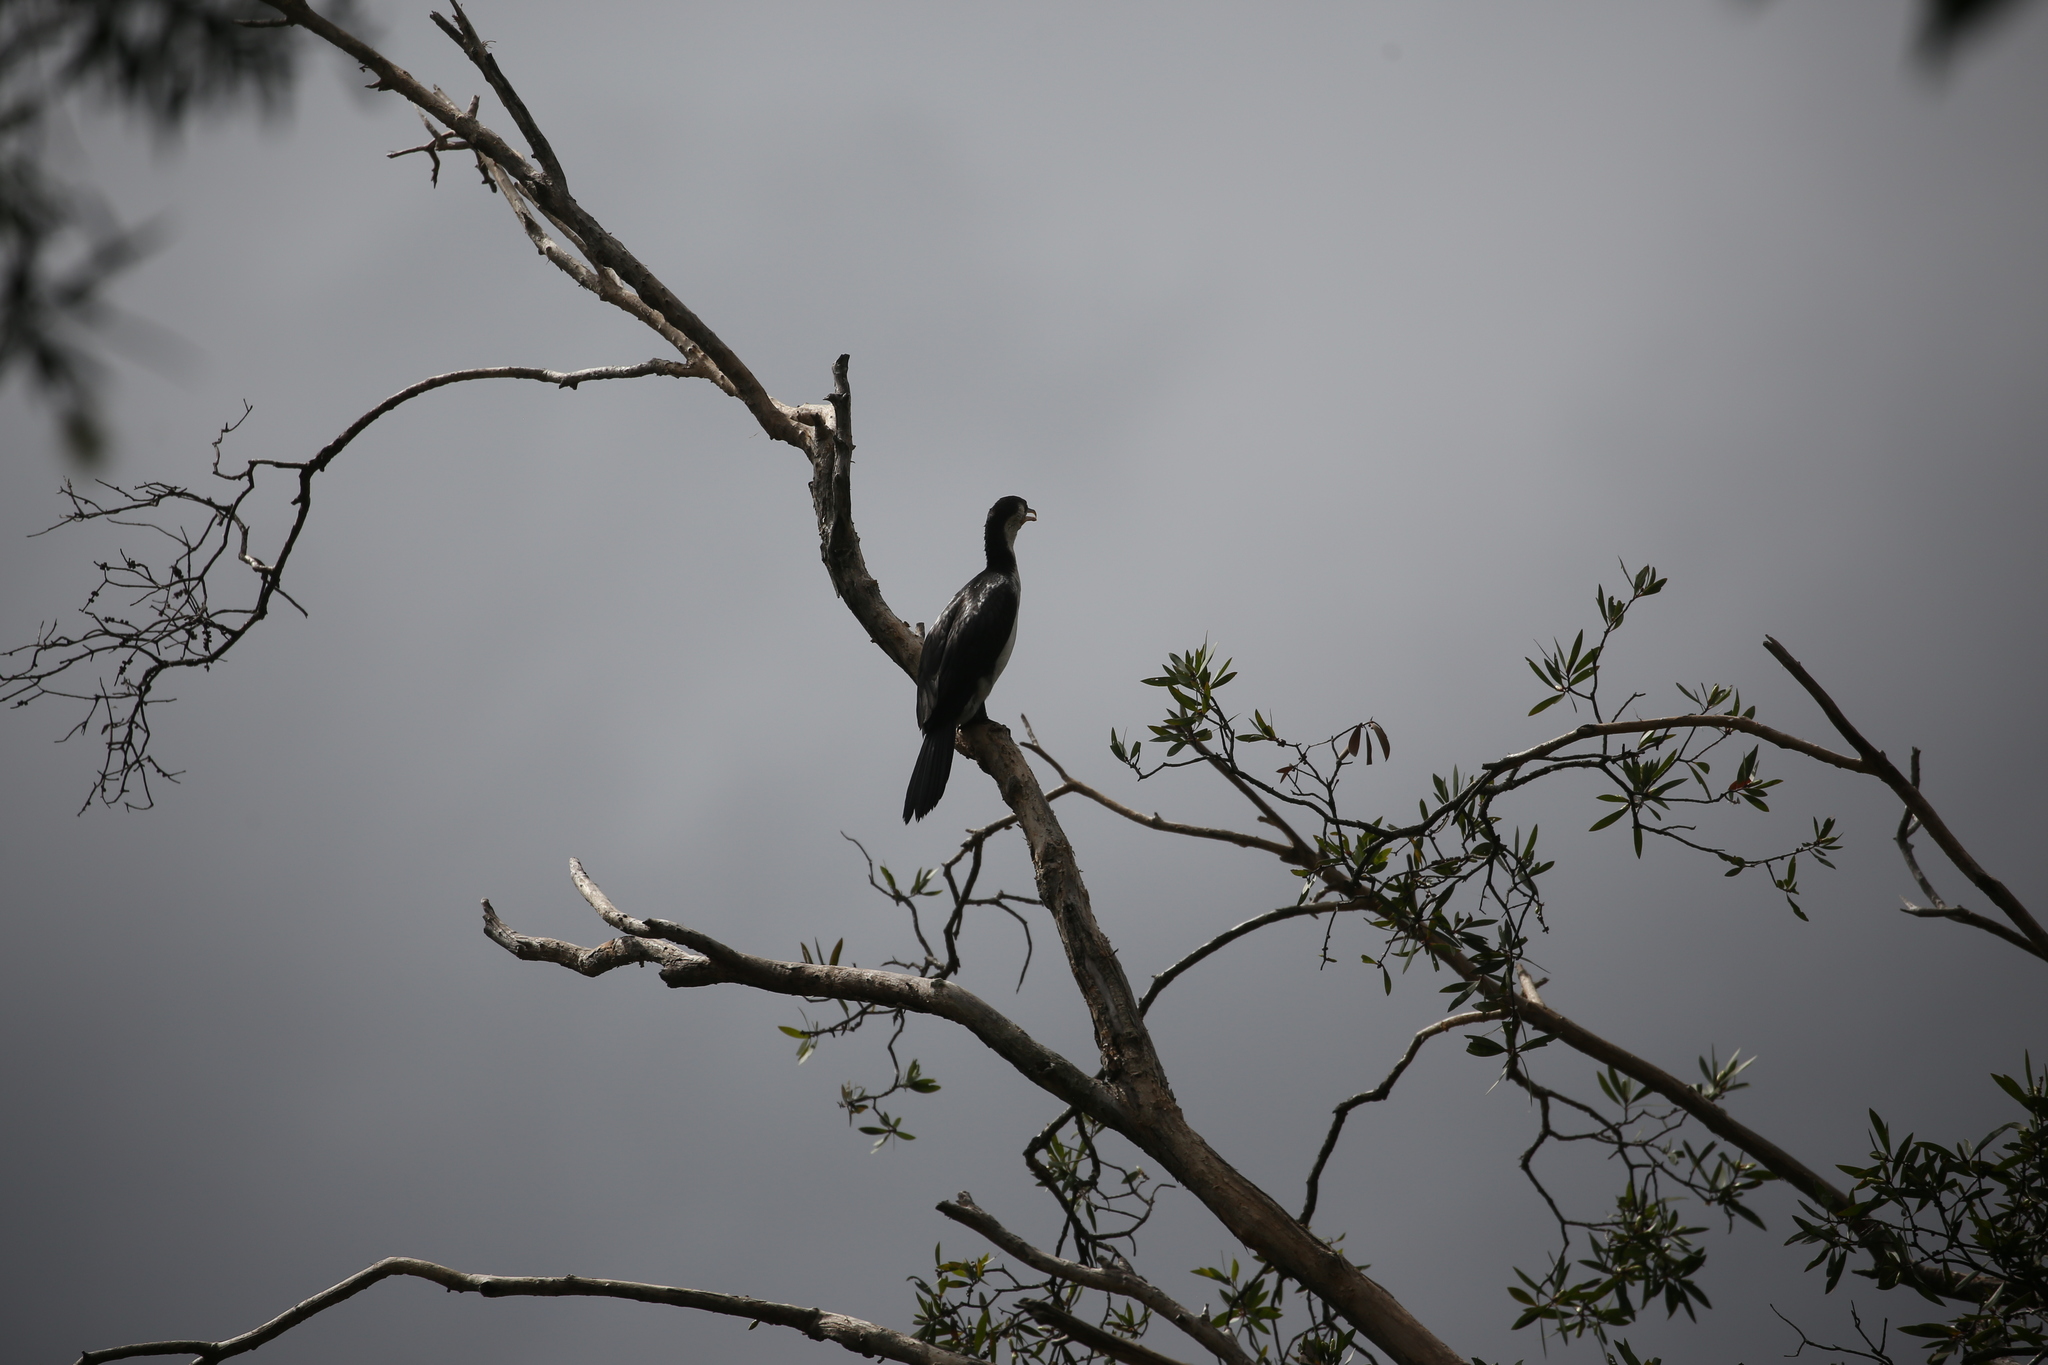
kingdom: Animalia
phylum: Chordata
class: Aves
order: Suliformes
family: Phalacrocoracidae
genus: Microcarbo
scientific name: Microcarbo melanoleucos
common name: Little pied cormorant
